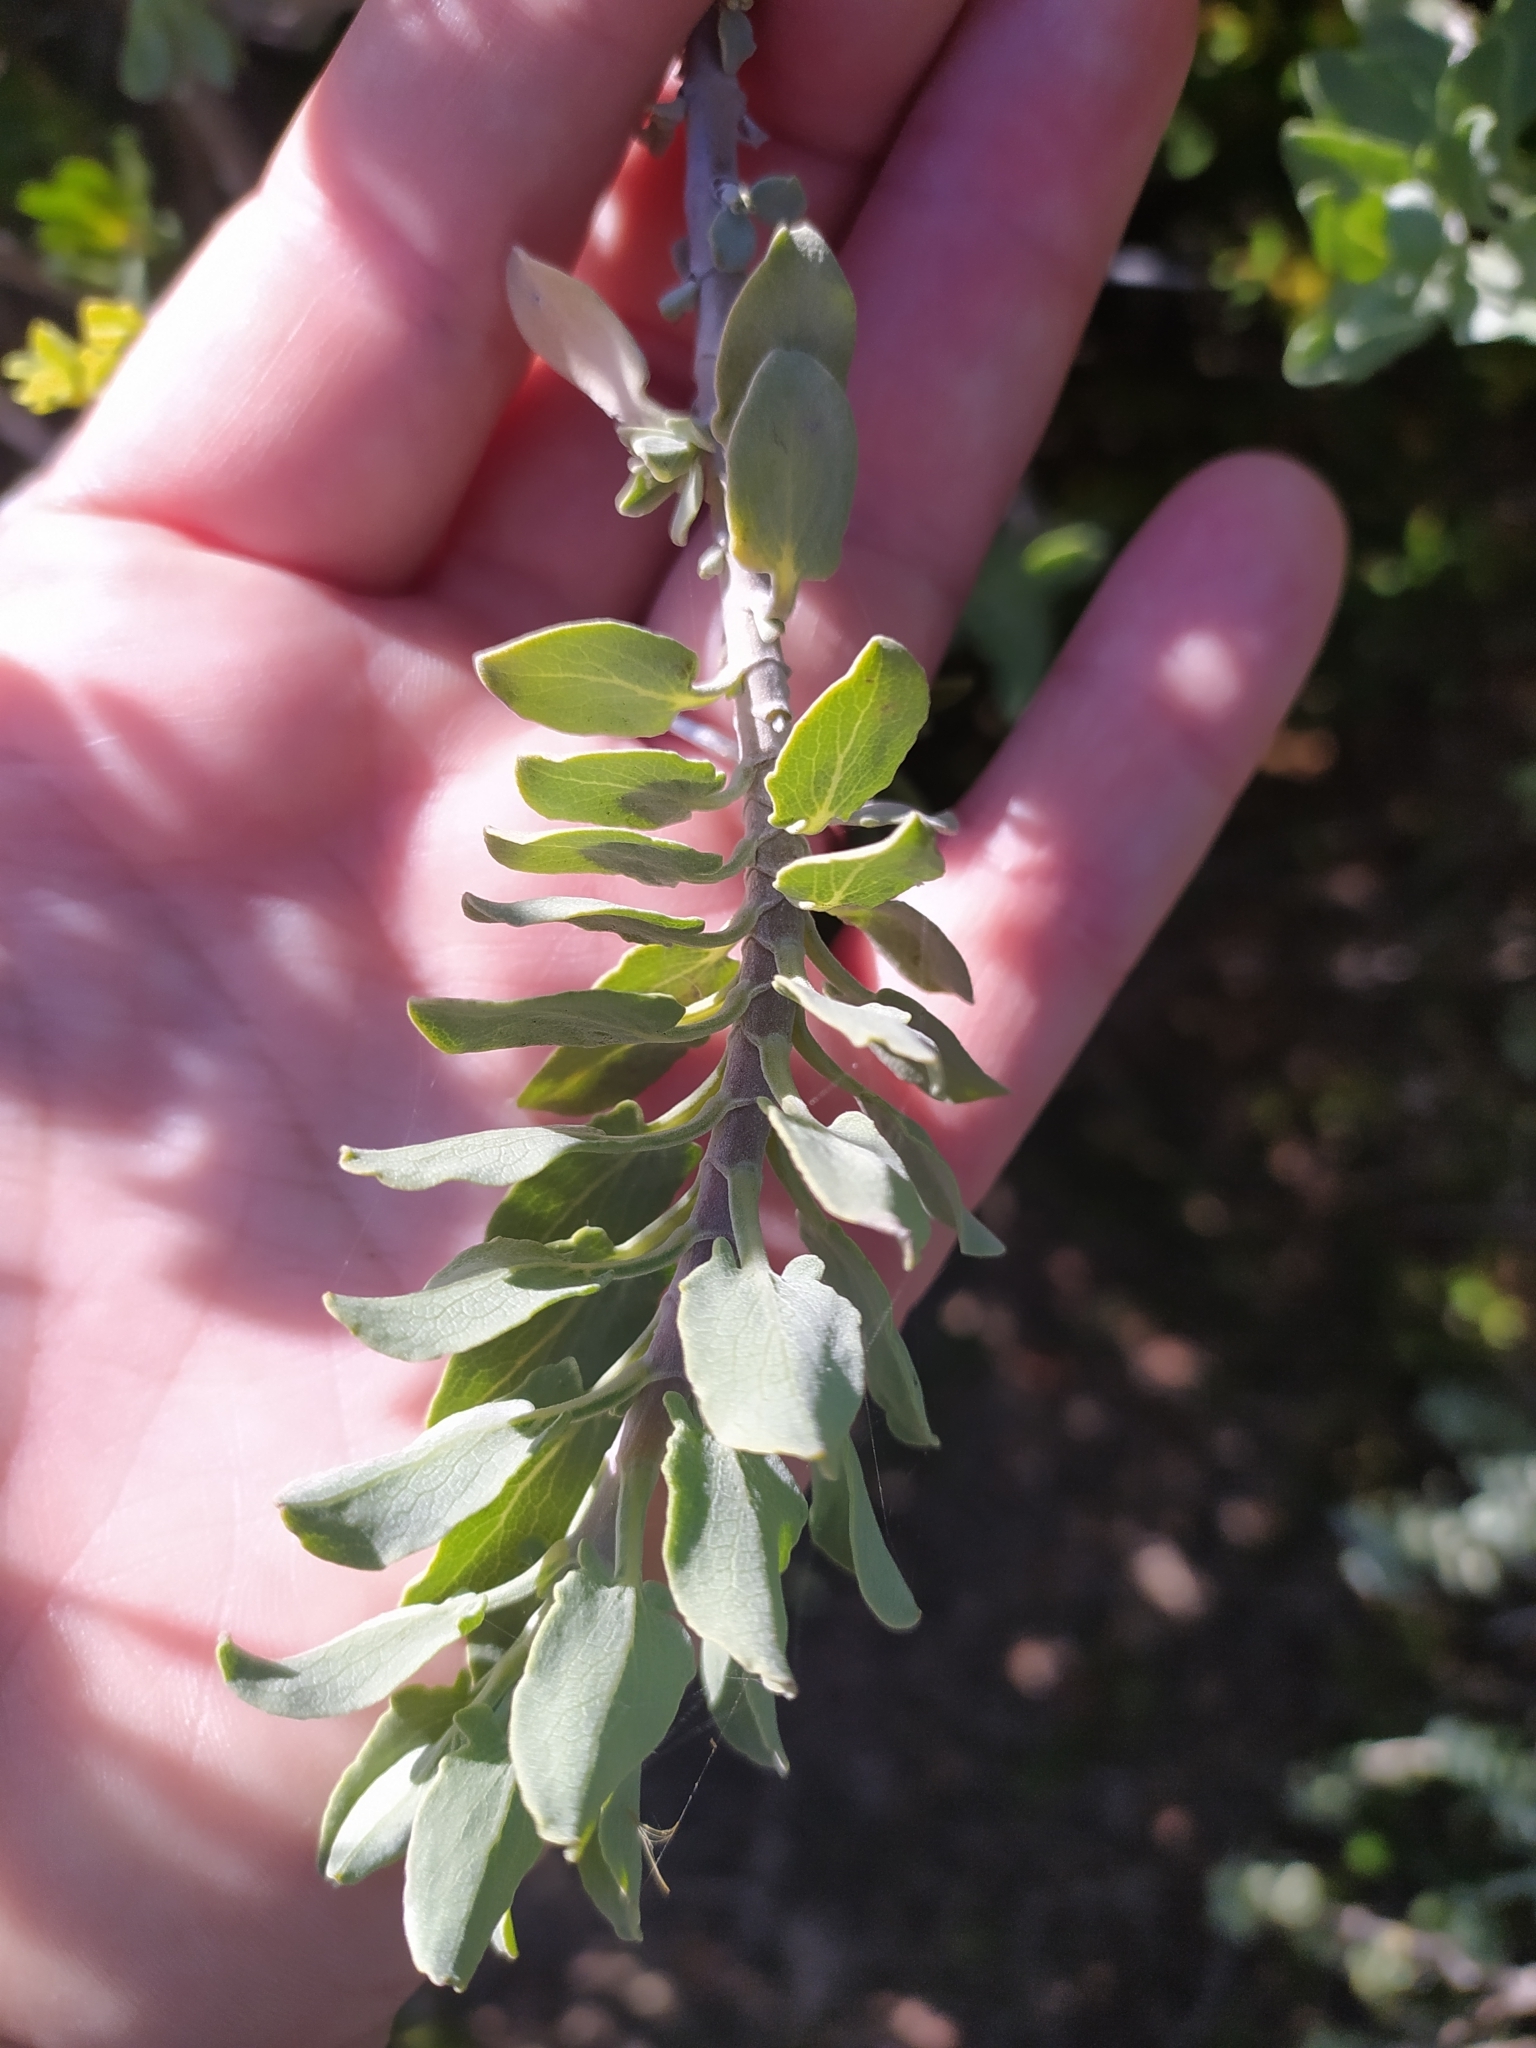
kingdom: Plantae
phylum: Tracheophyta
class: Magnoliopsida
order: Lamiales
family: Lamiaceae
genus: Salvia
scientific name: Salvia aurea
